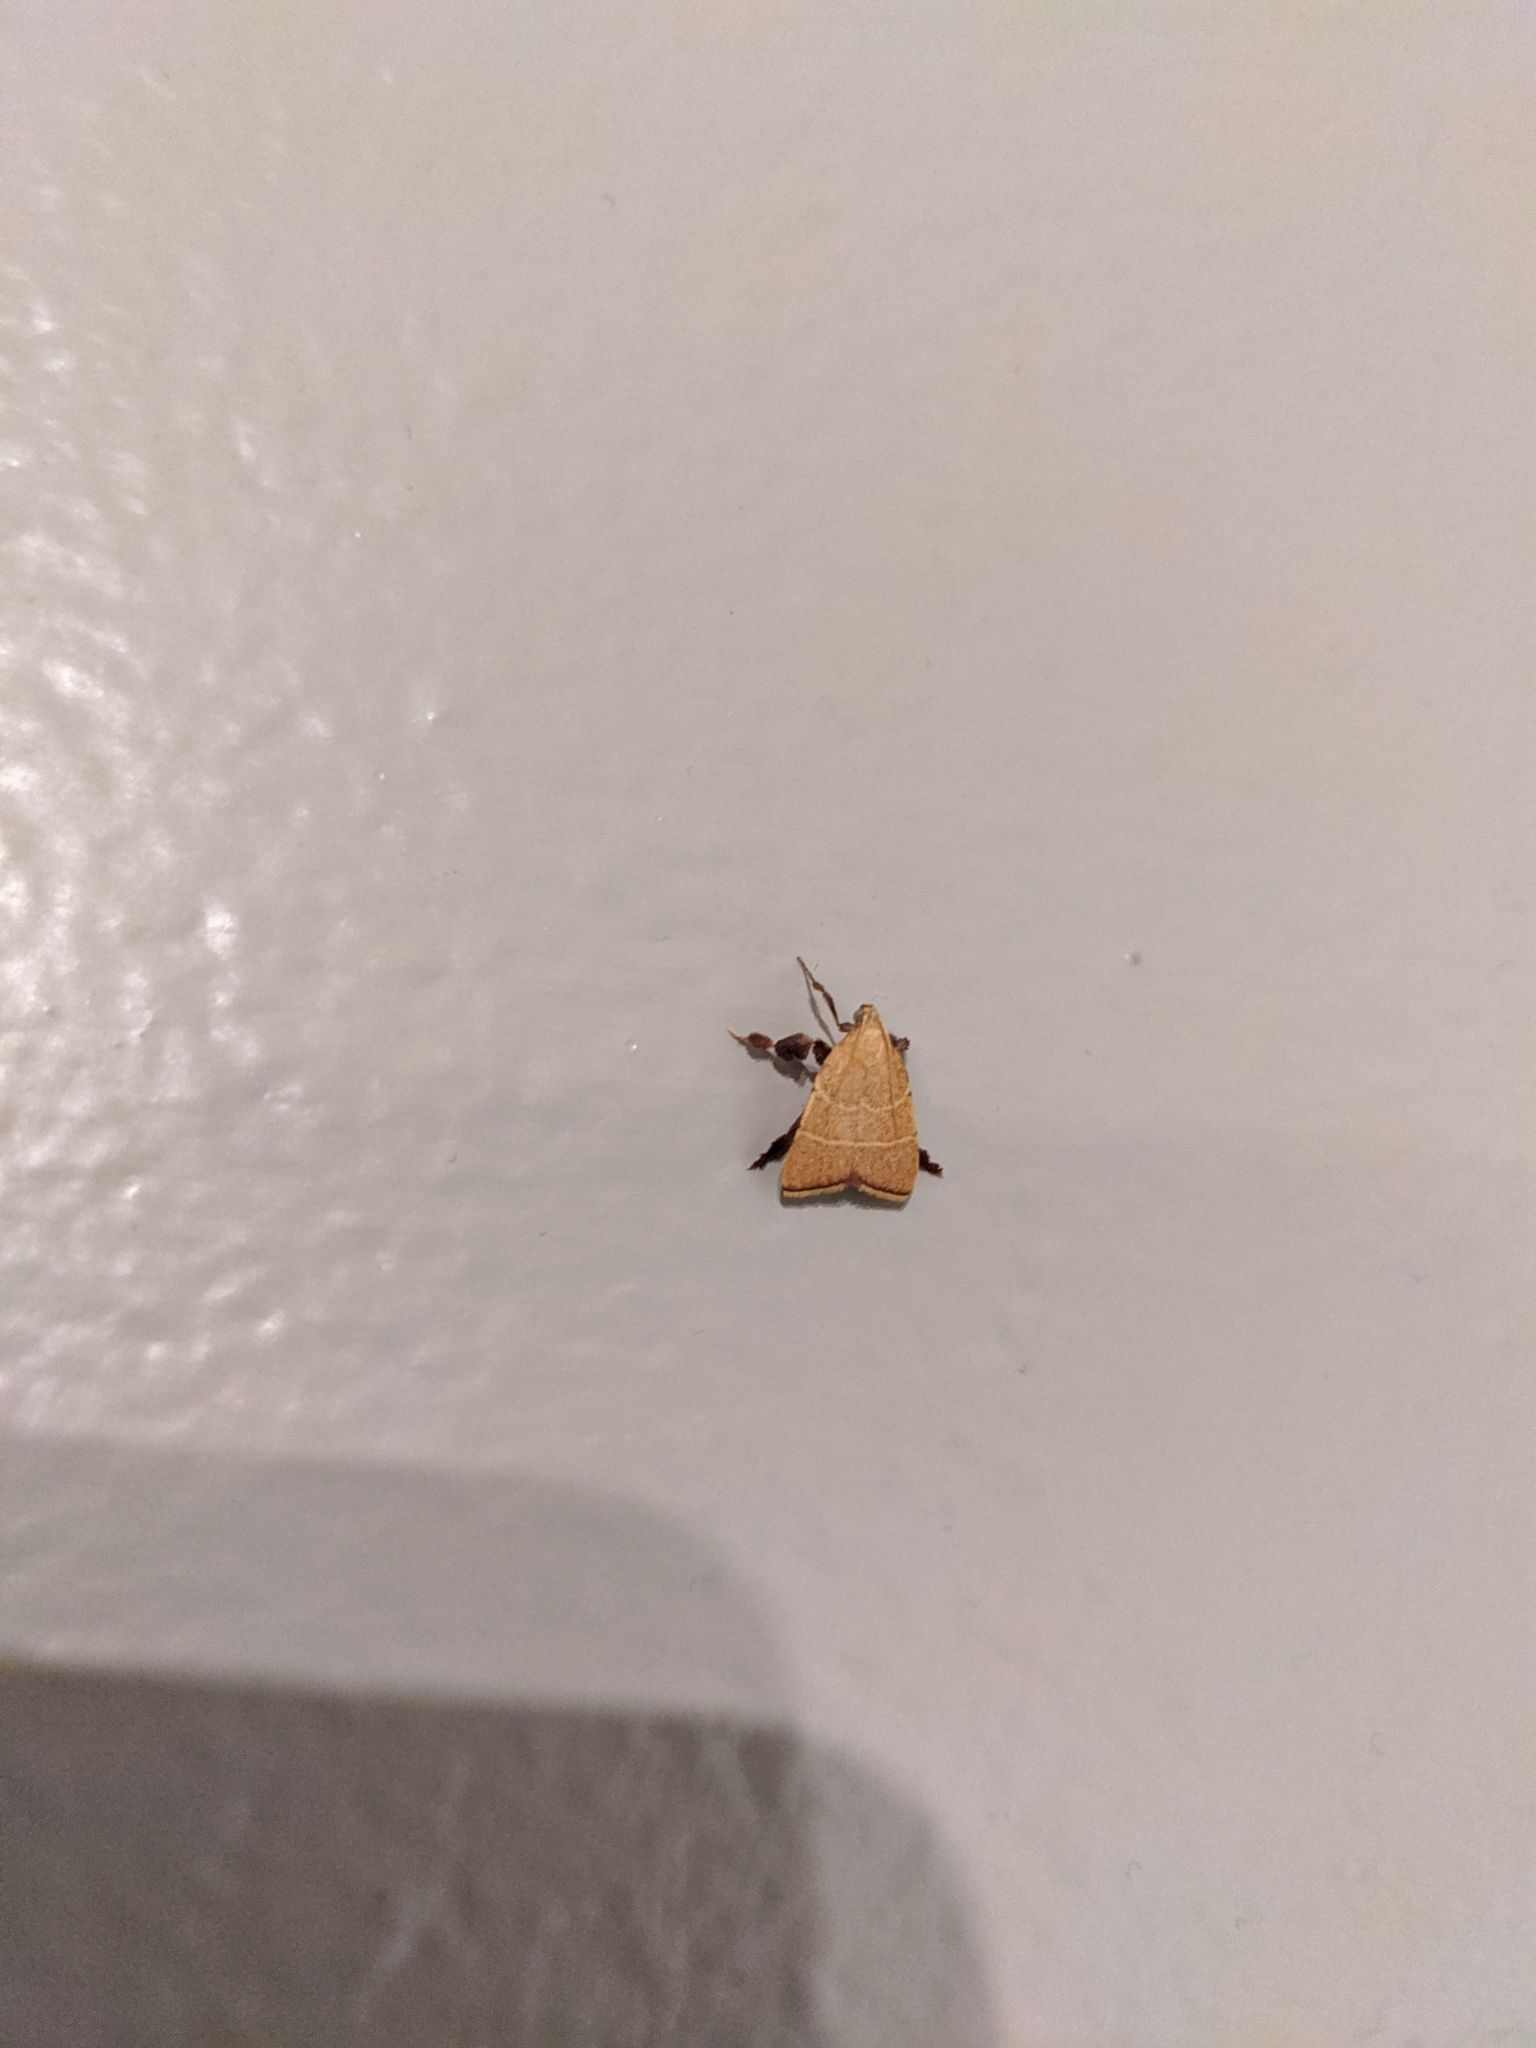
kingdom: Animalia
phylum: Arthropoda
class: Insecta
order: Lepidoptera
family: Pyralidae
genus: Parachma
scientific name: Parachma ochracealis
